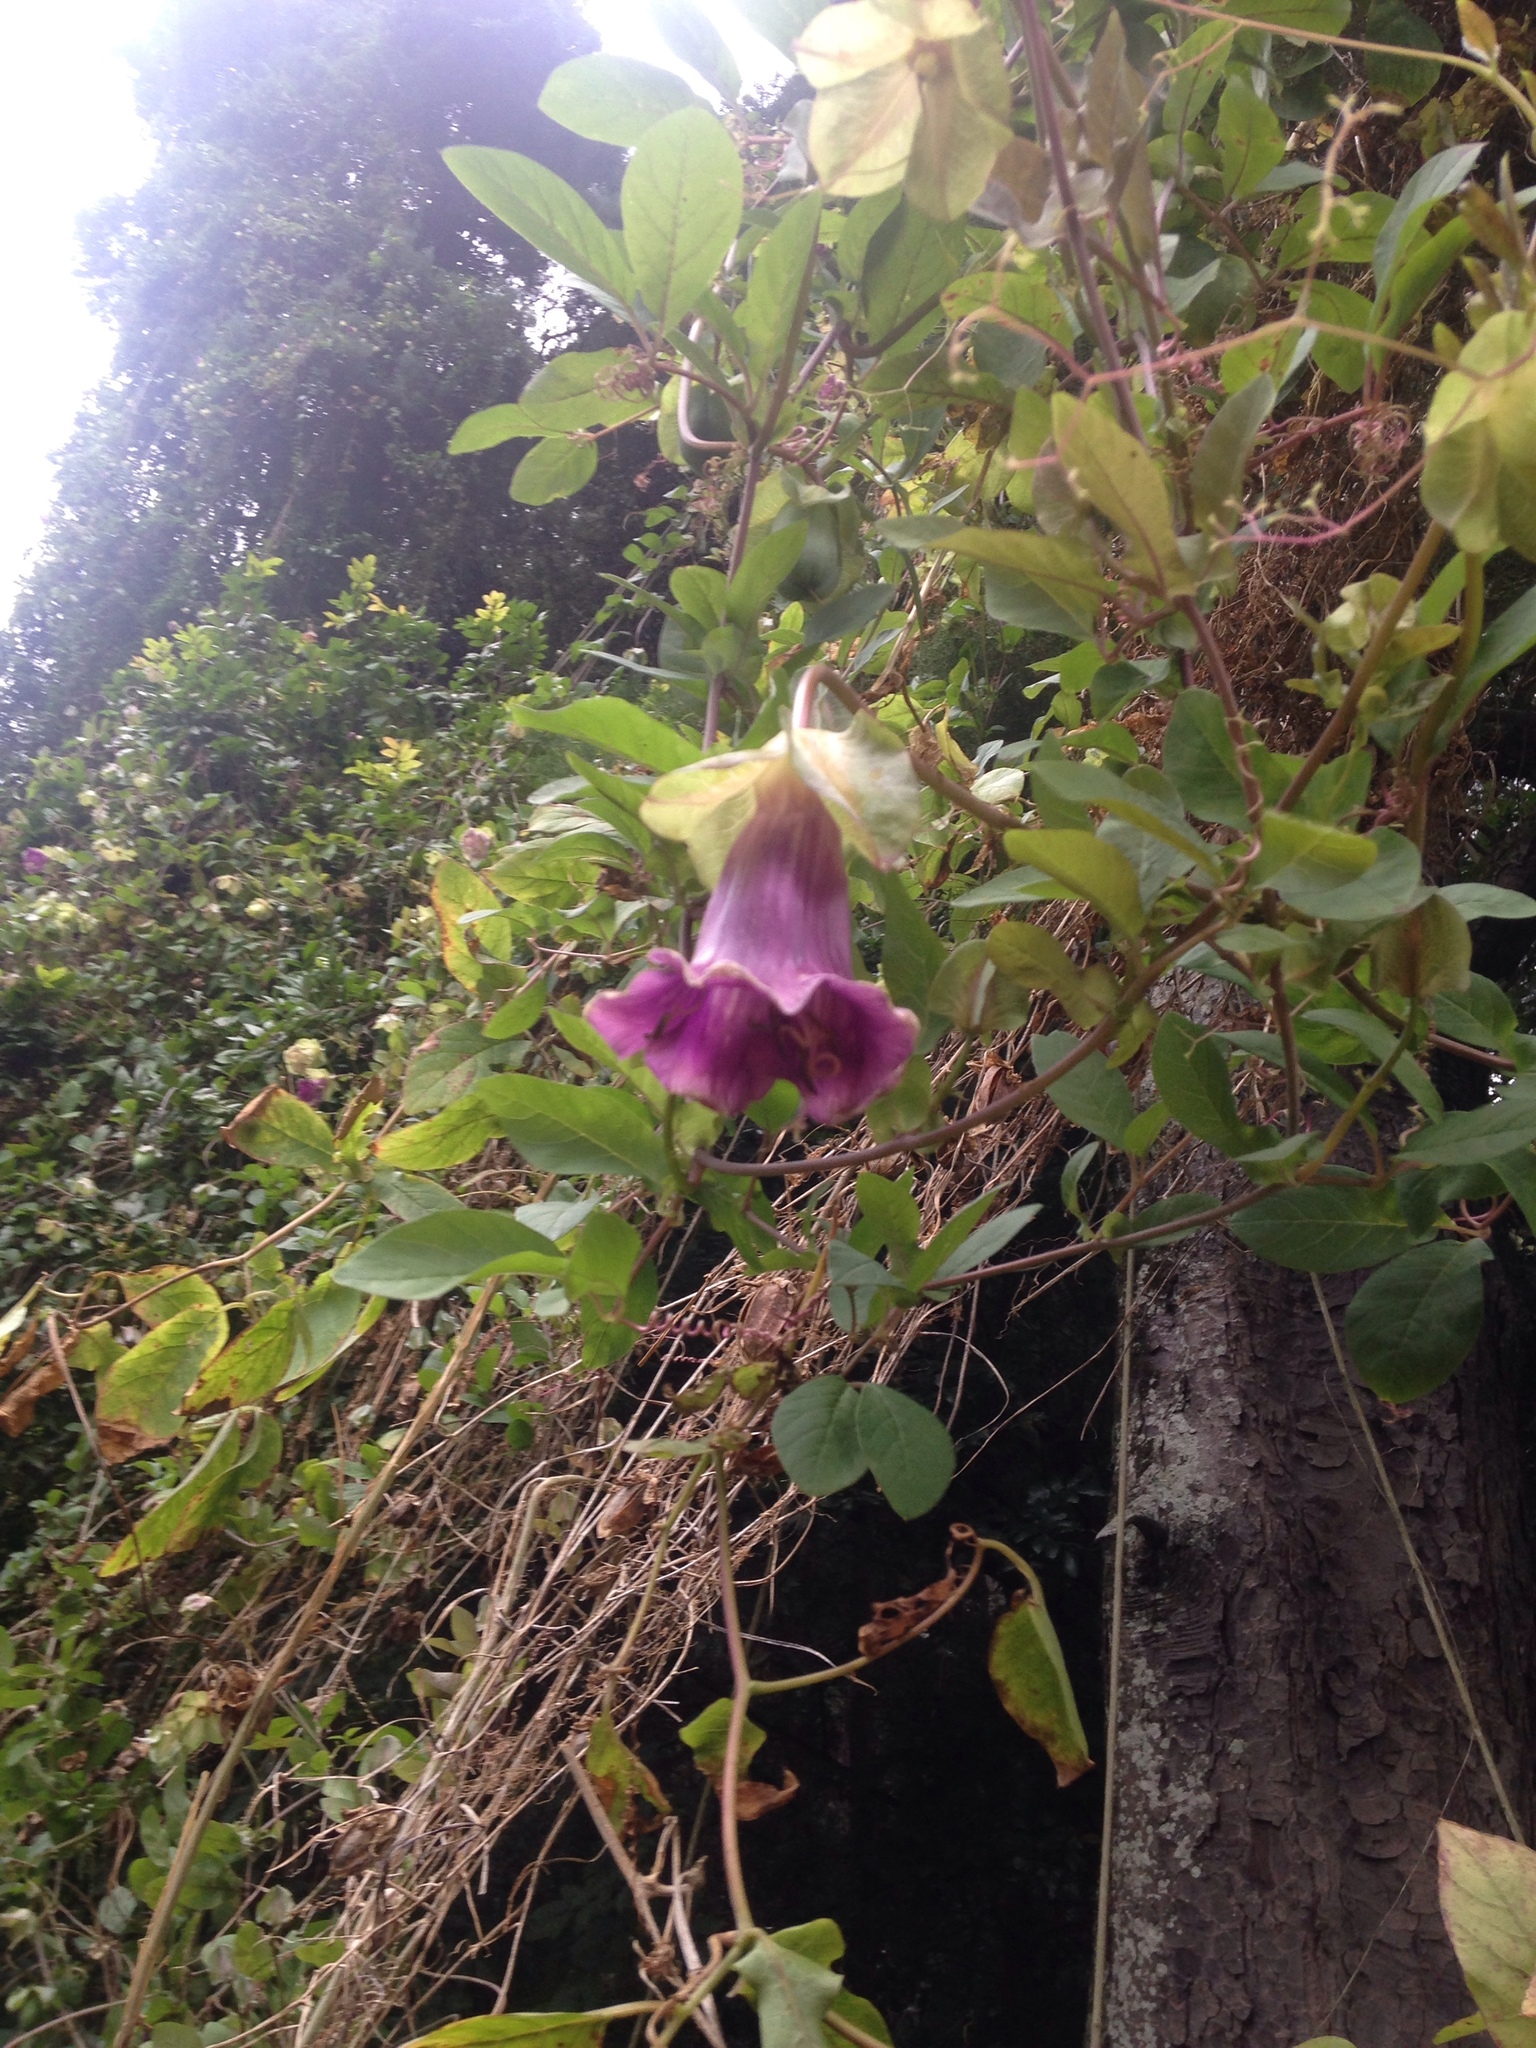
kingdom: Plantae
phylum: Tracheophyta
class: Magnoliopsida
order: Ericales
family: Polemoniaceae
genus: Cobaea
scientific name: Cobaea scandens
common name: Cup-and-saucer-vine
